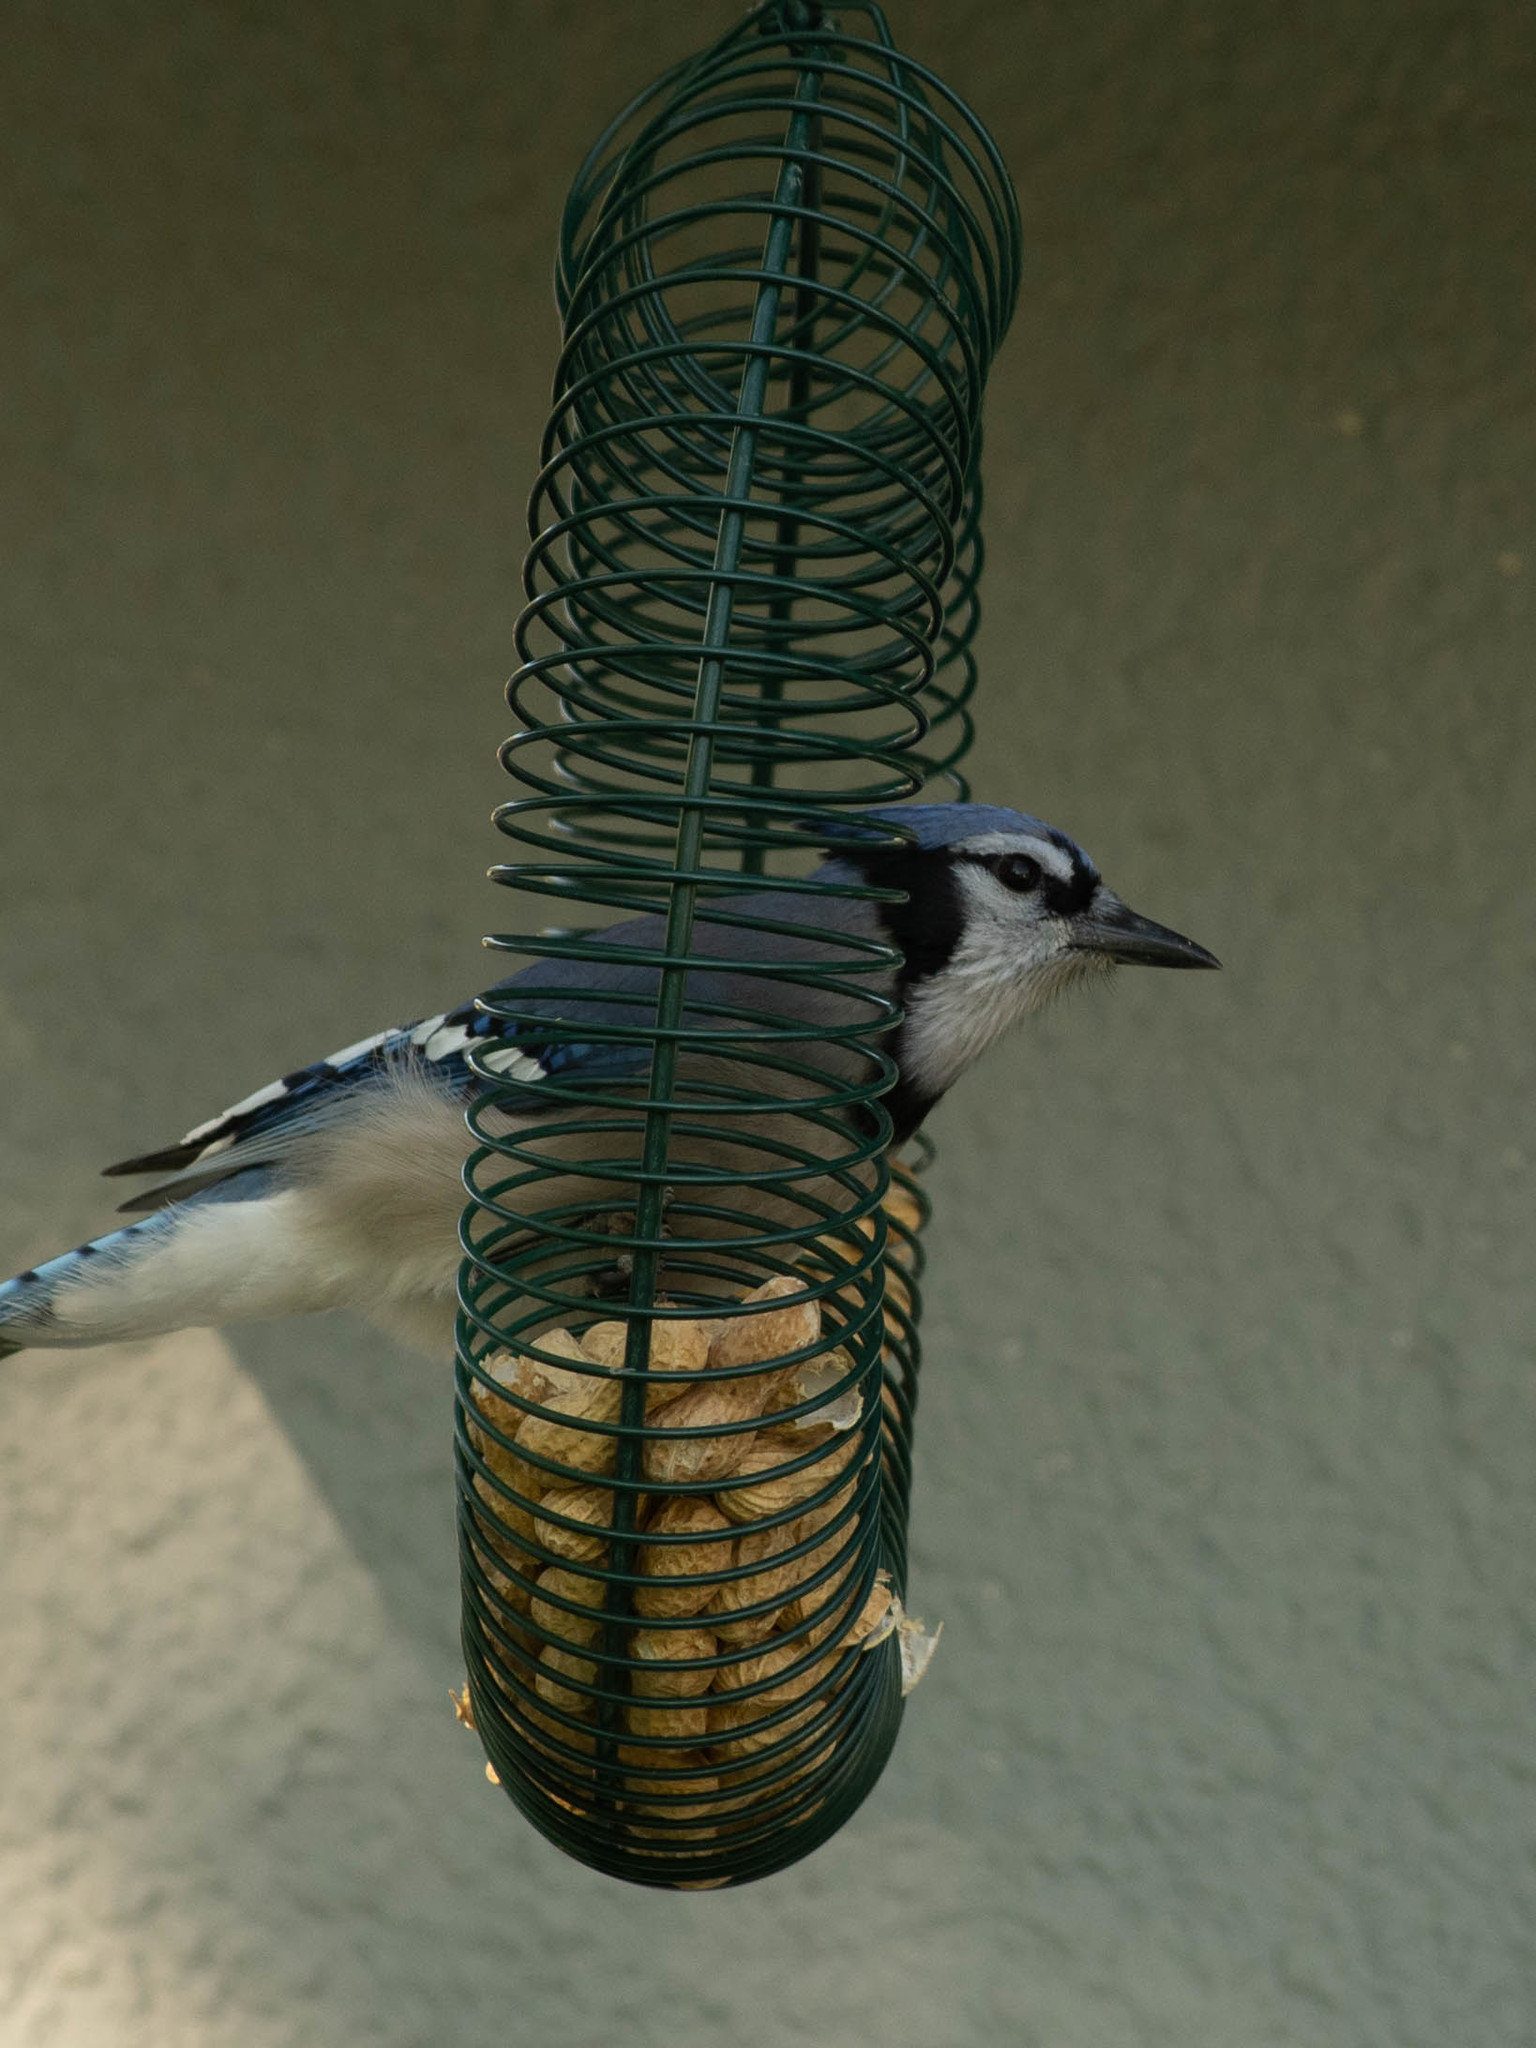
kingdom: Animalia
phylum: Chordata
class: Aves
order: Passeriformes
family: Corvidae
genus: Cyanocitta
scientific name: Cyanocitta cristata
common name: Blue jay
